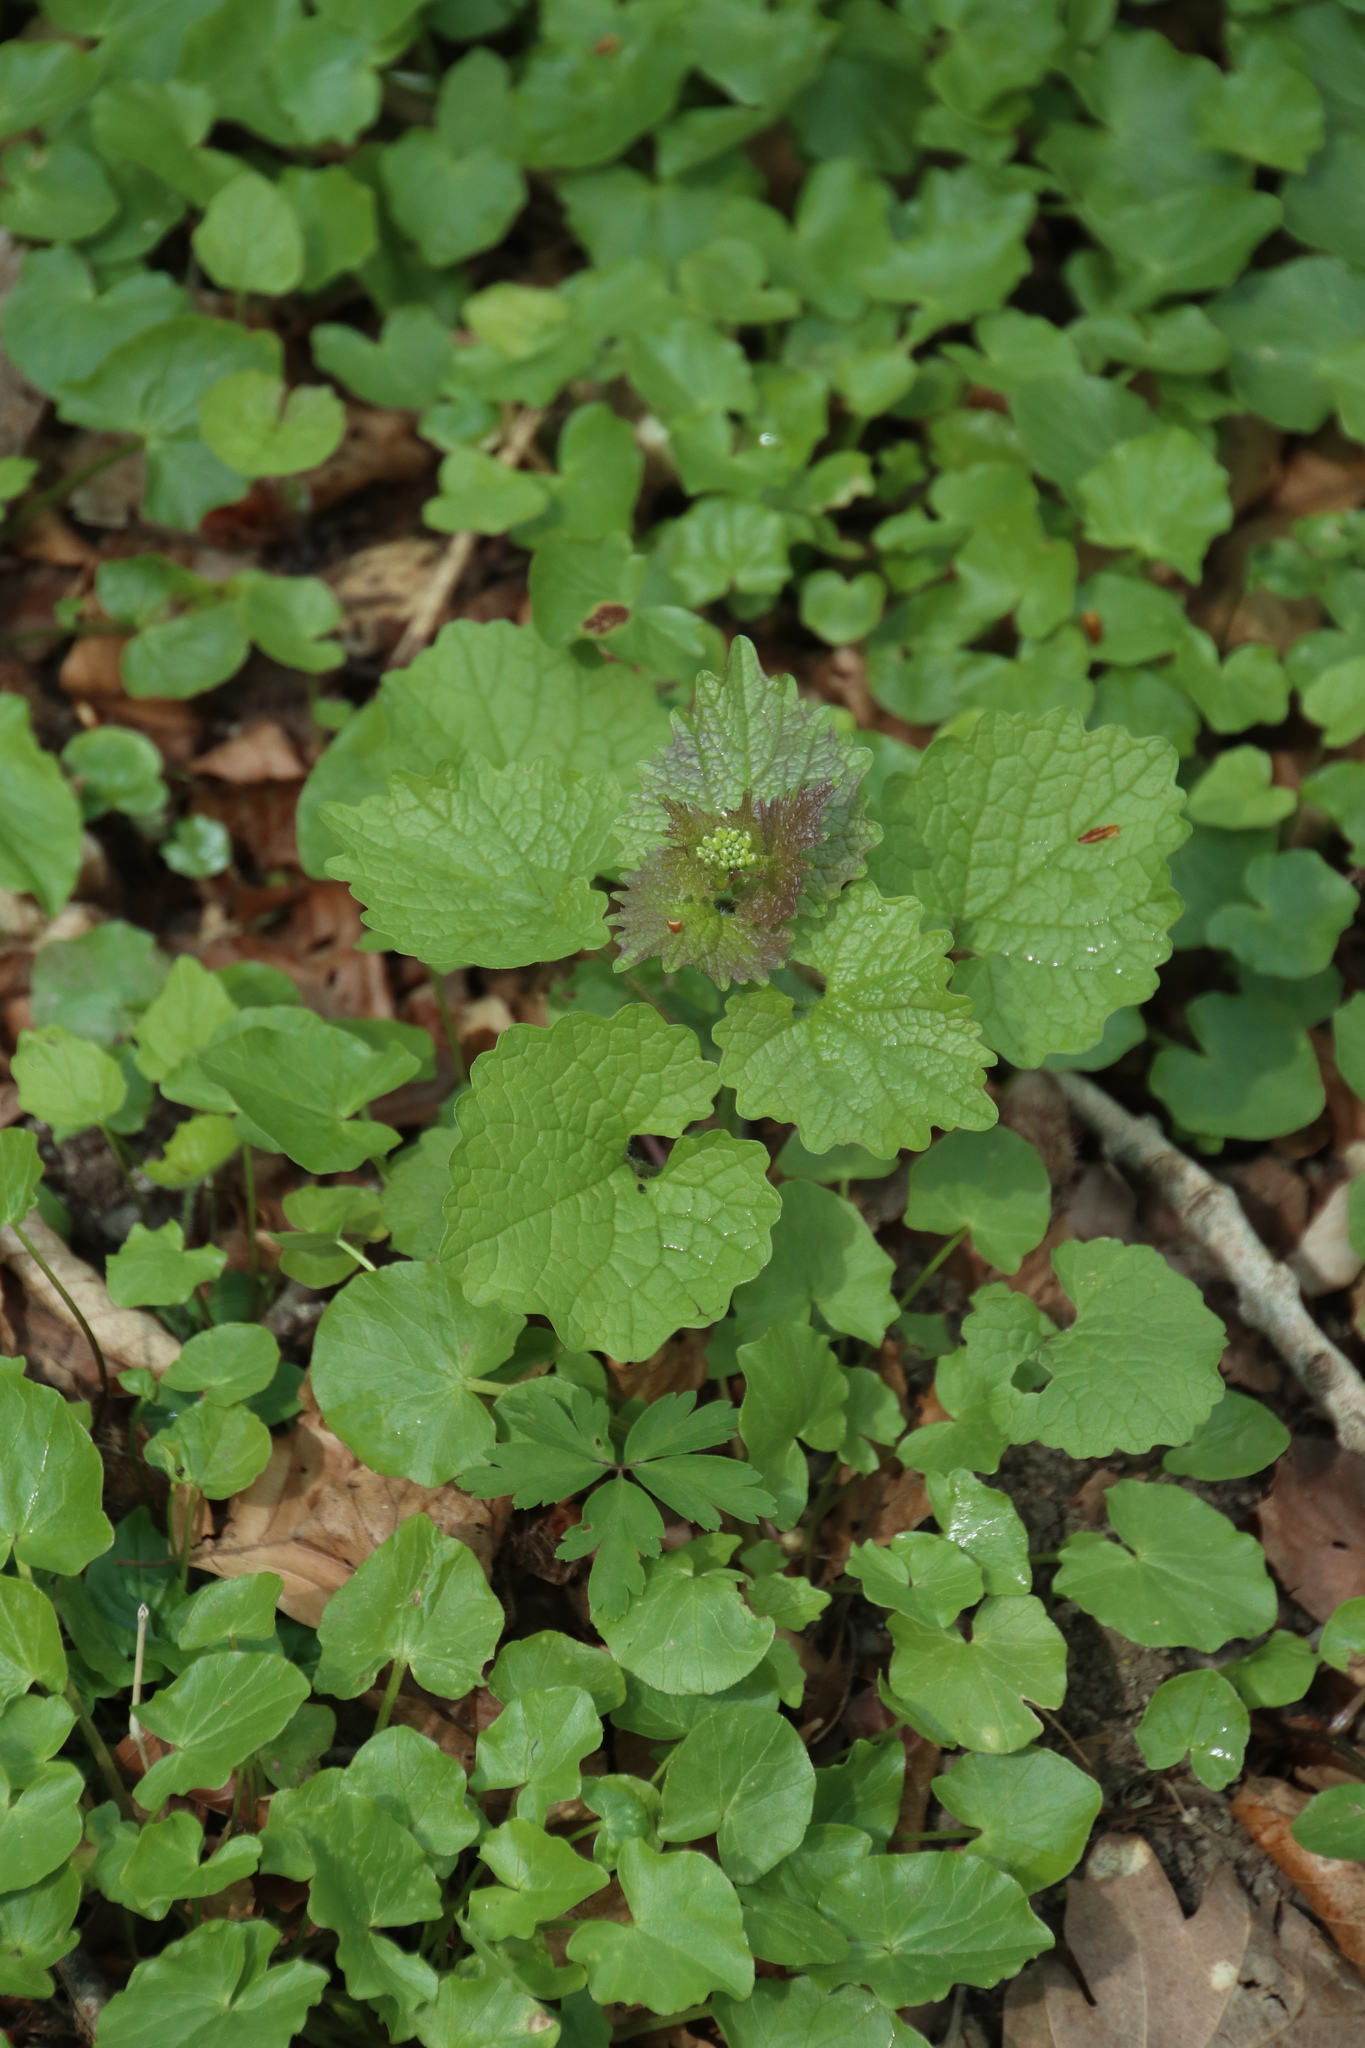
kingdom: Plantae
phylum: Tracheophyta
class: Magnoliopsida
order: Brassicales
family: Brassicaceae
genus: Alliaria
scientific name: Alliaria petiolata
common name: Garlic mustard
